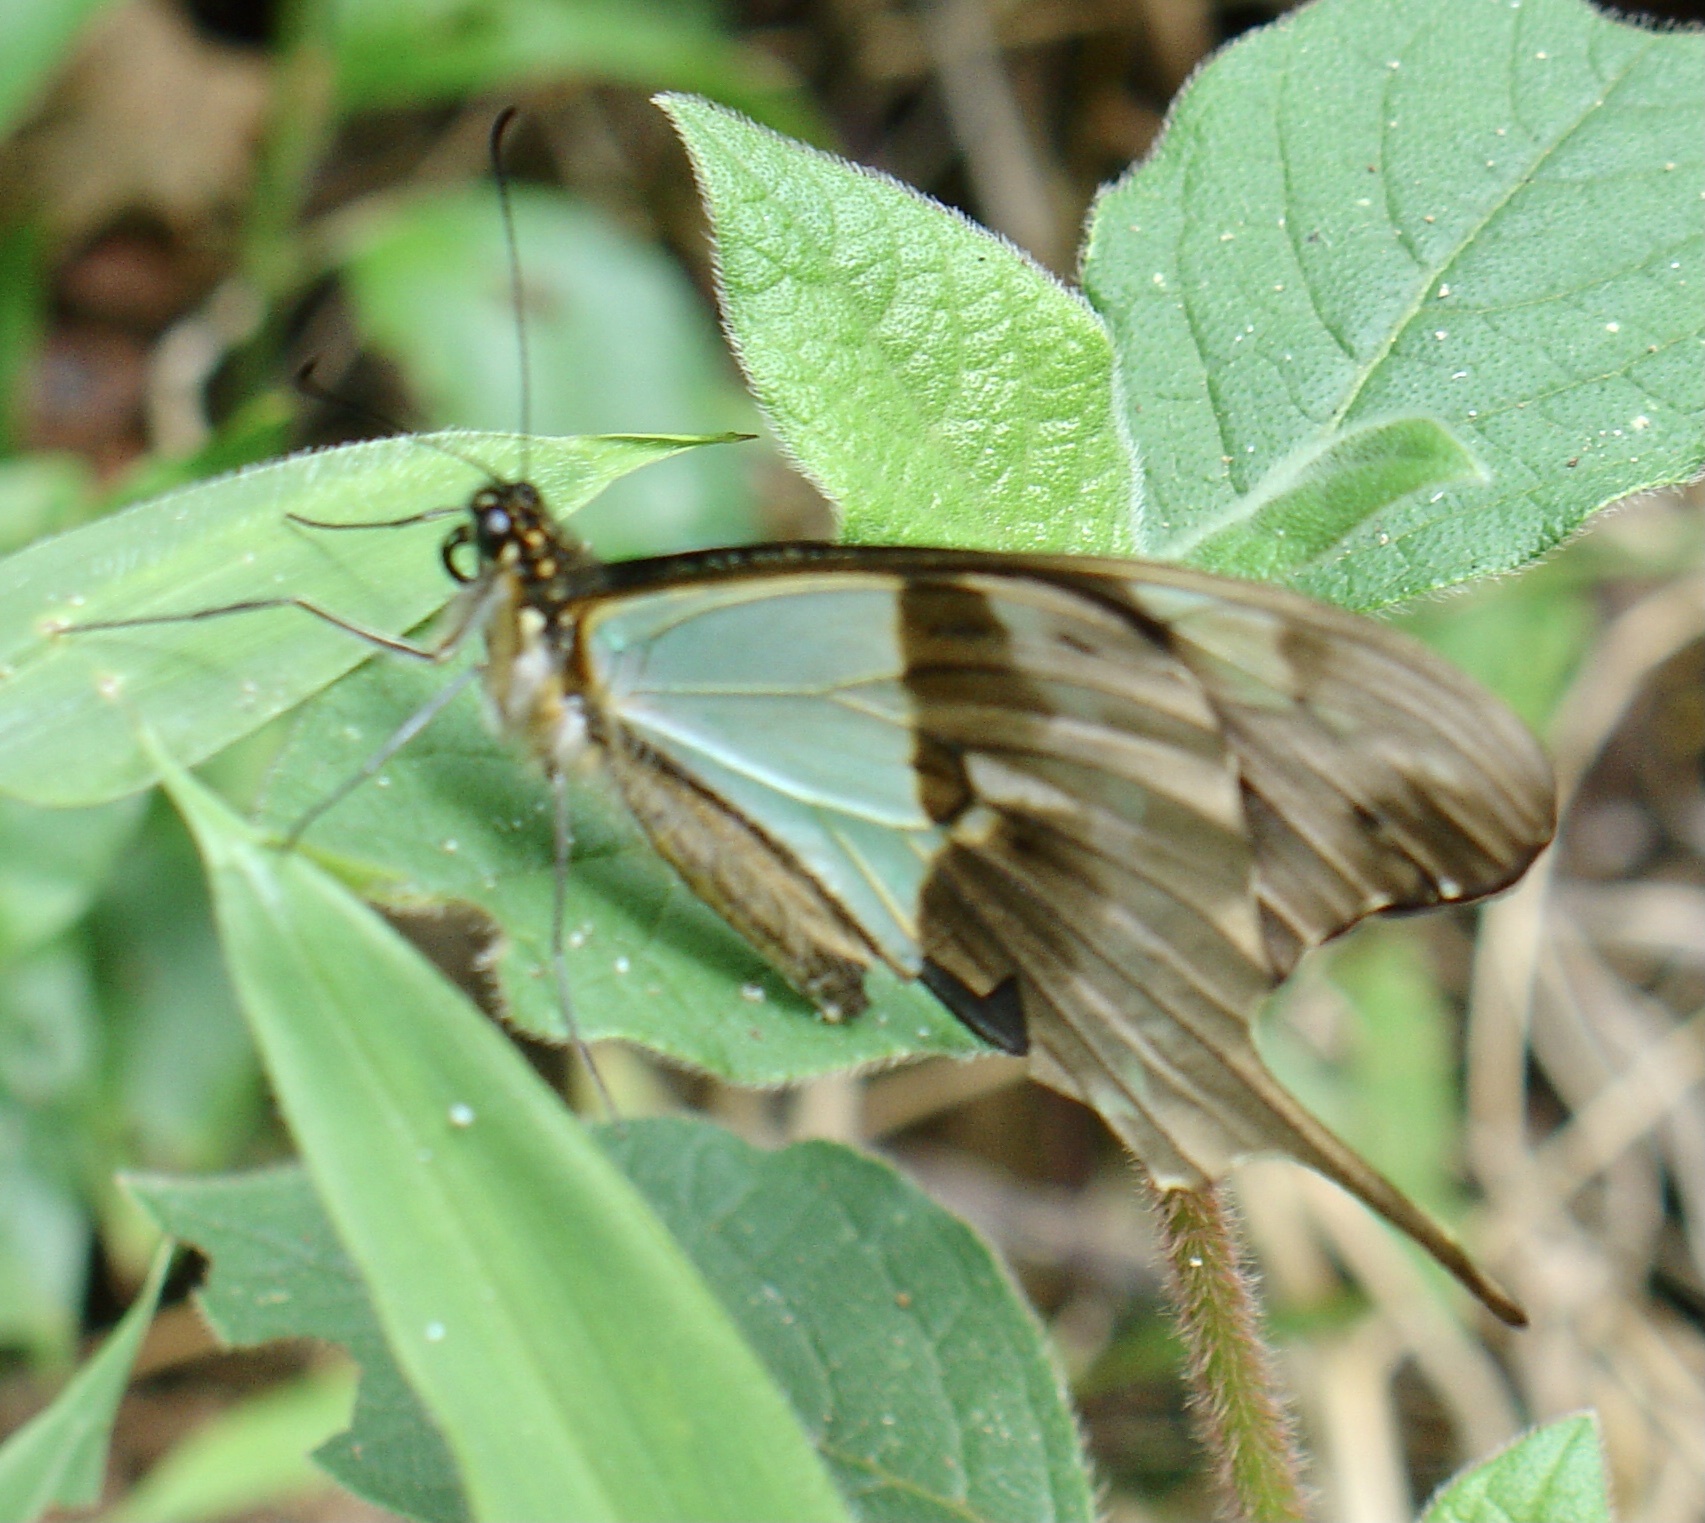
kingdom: Animalia
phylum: Arthropoda
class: Insecta
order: Lepidoptera
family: Papilionidae
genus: Papilio
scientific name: Papilio phorcas
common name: Apple-green swallowtail
